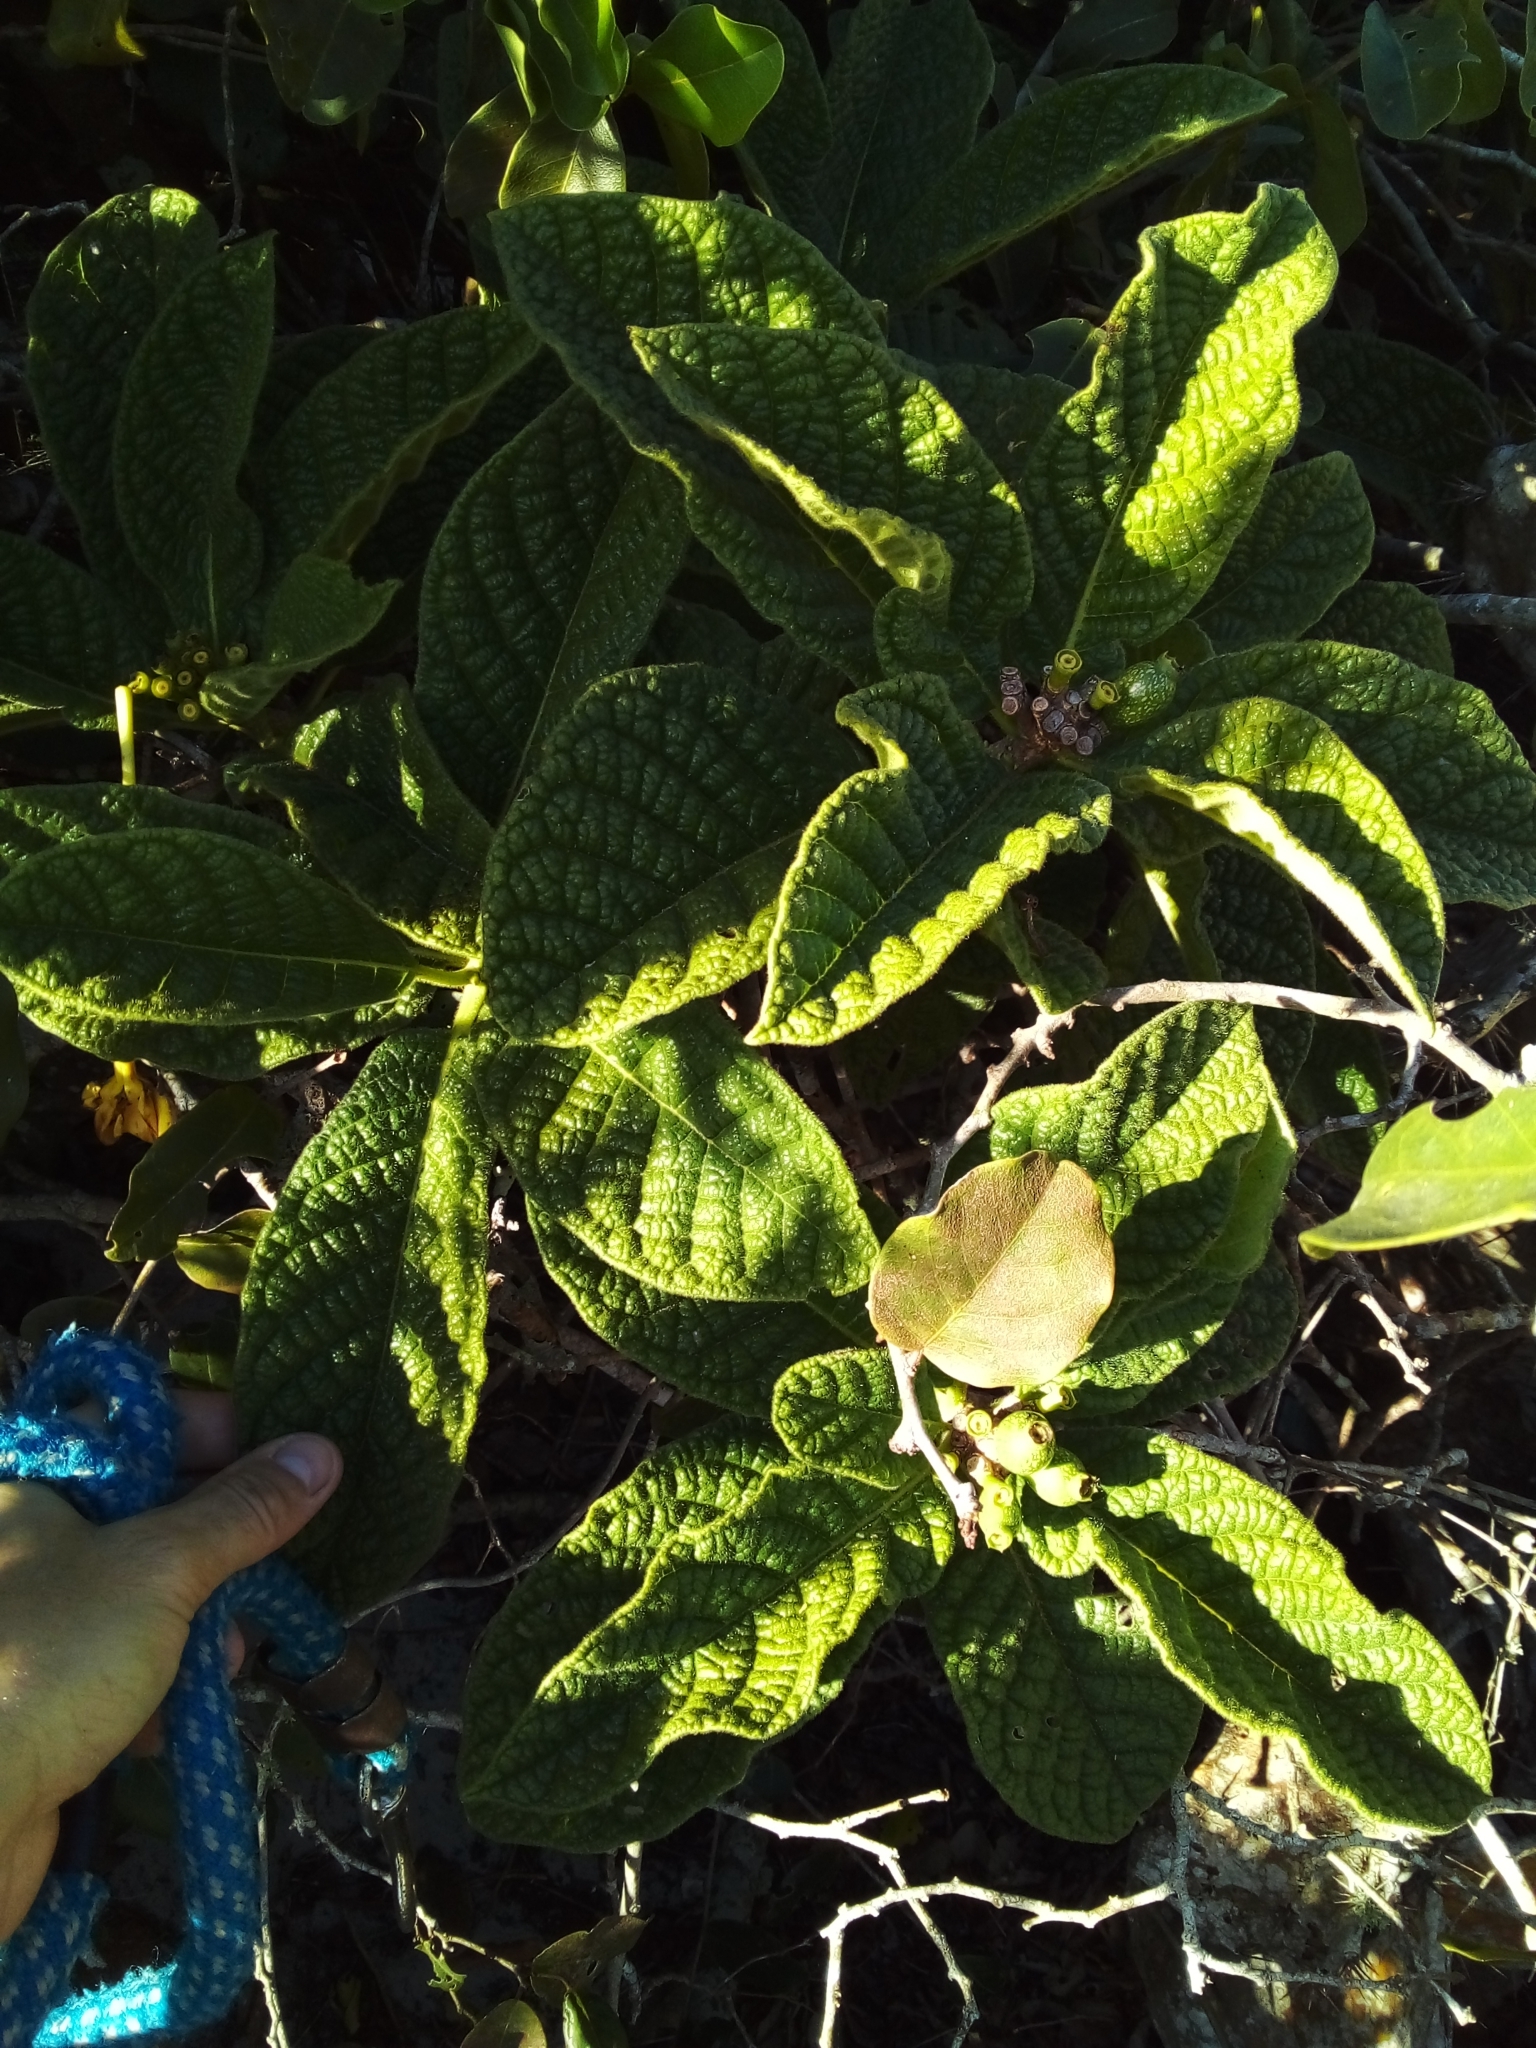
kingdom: Plantae
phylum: Tracheophyta
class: Magnoliopsida
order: Gentianales
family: Rubiaceae
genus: Tocoyena
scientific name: Tocoyena bullata
